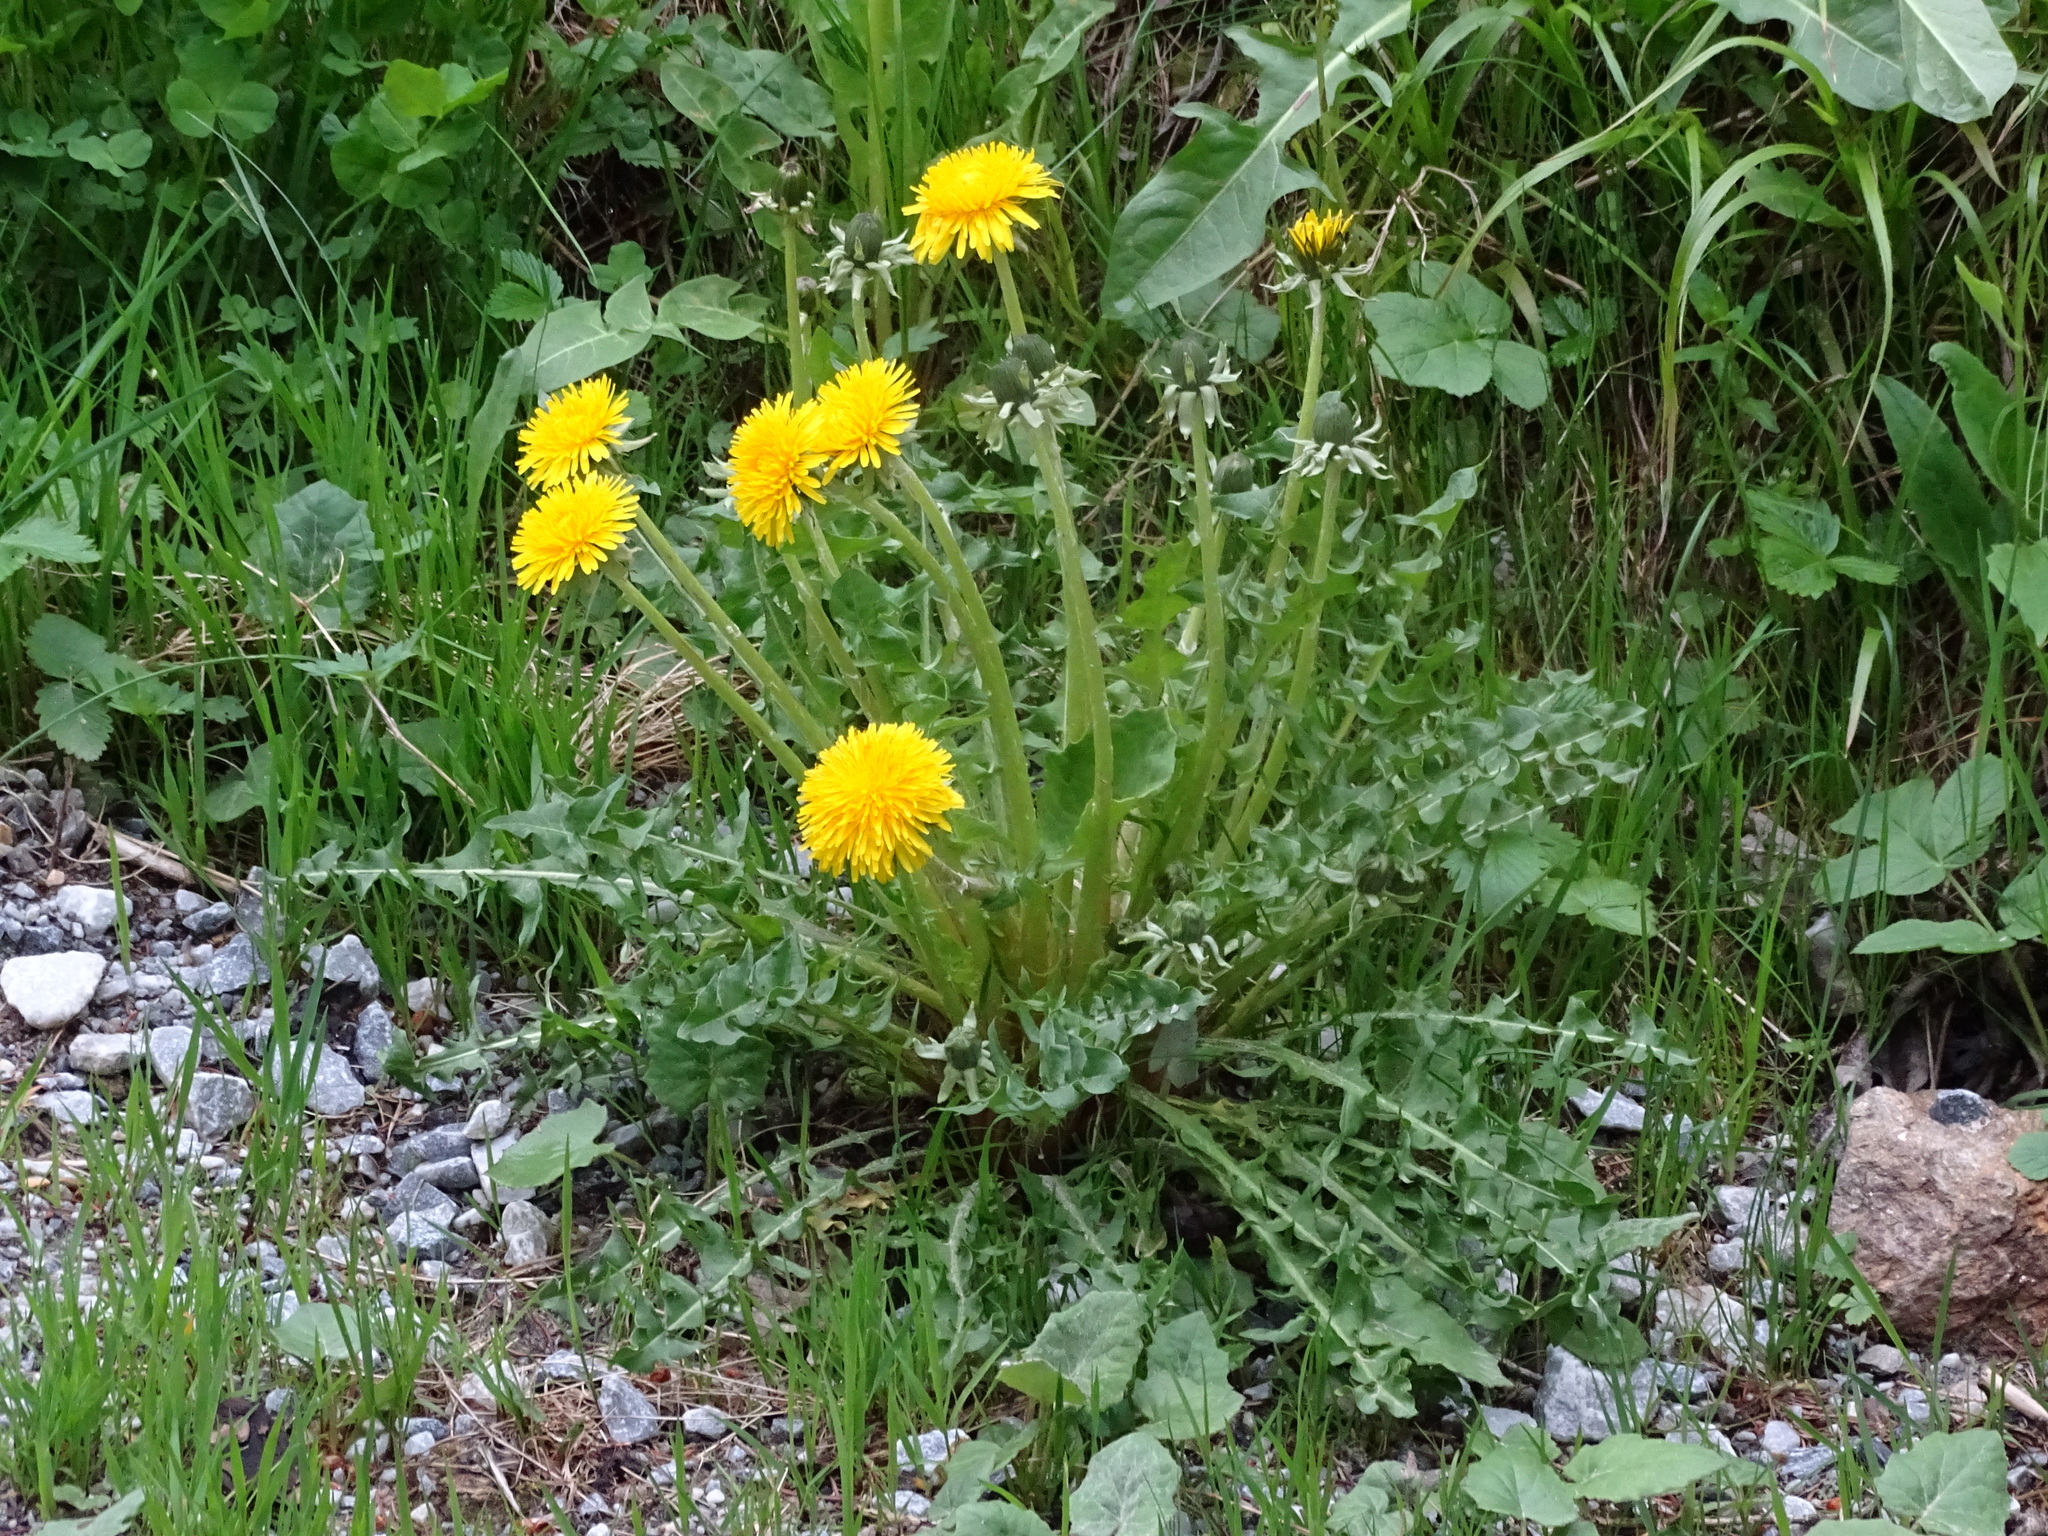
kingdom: Plantae
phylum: Tracheophyta
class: Magnoliopsida
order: Asterales
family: Asteraceae
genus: Taraxacum
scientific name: Taraxacum officinale
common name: Common dandelion
